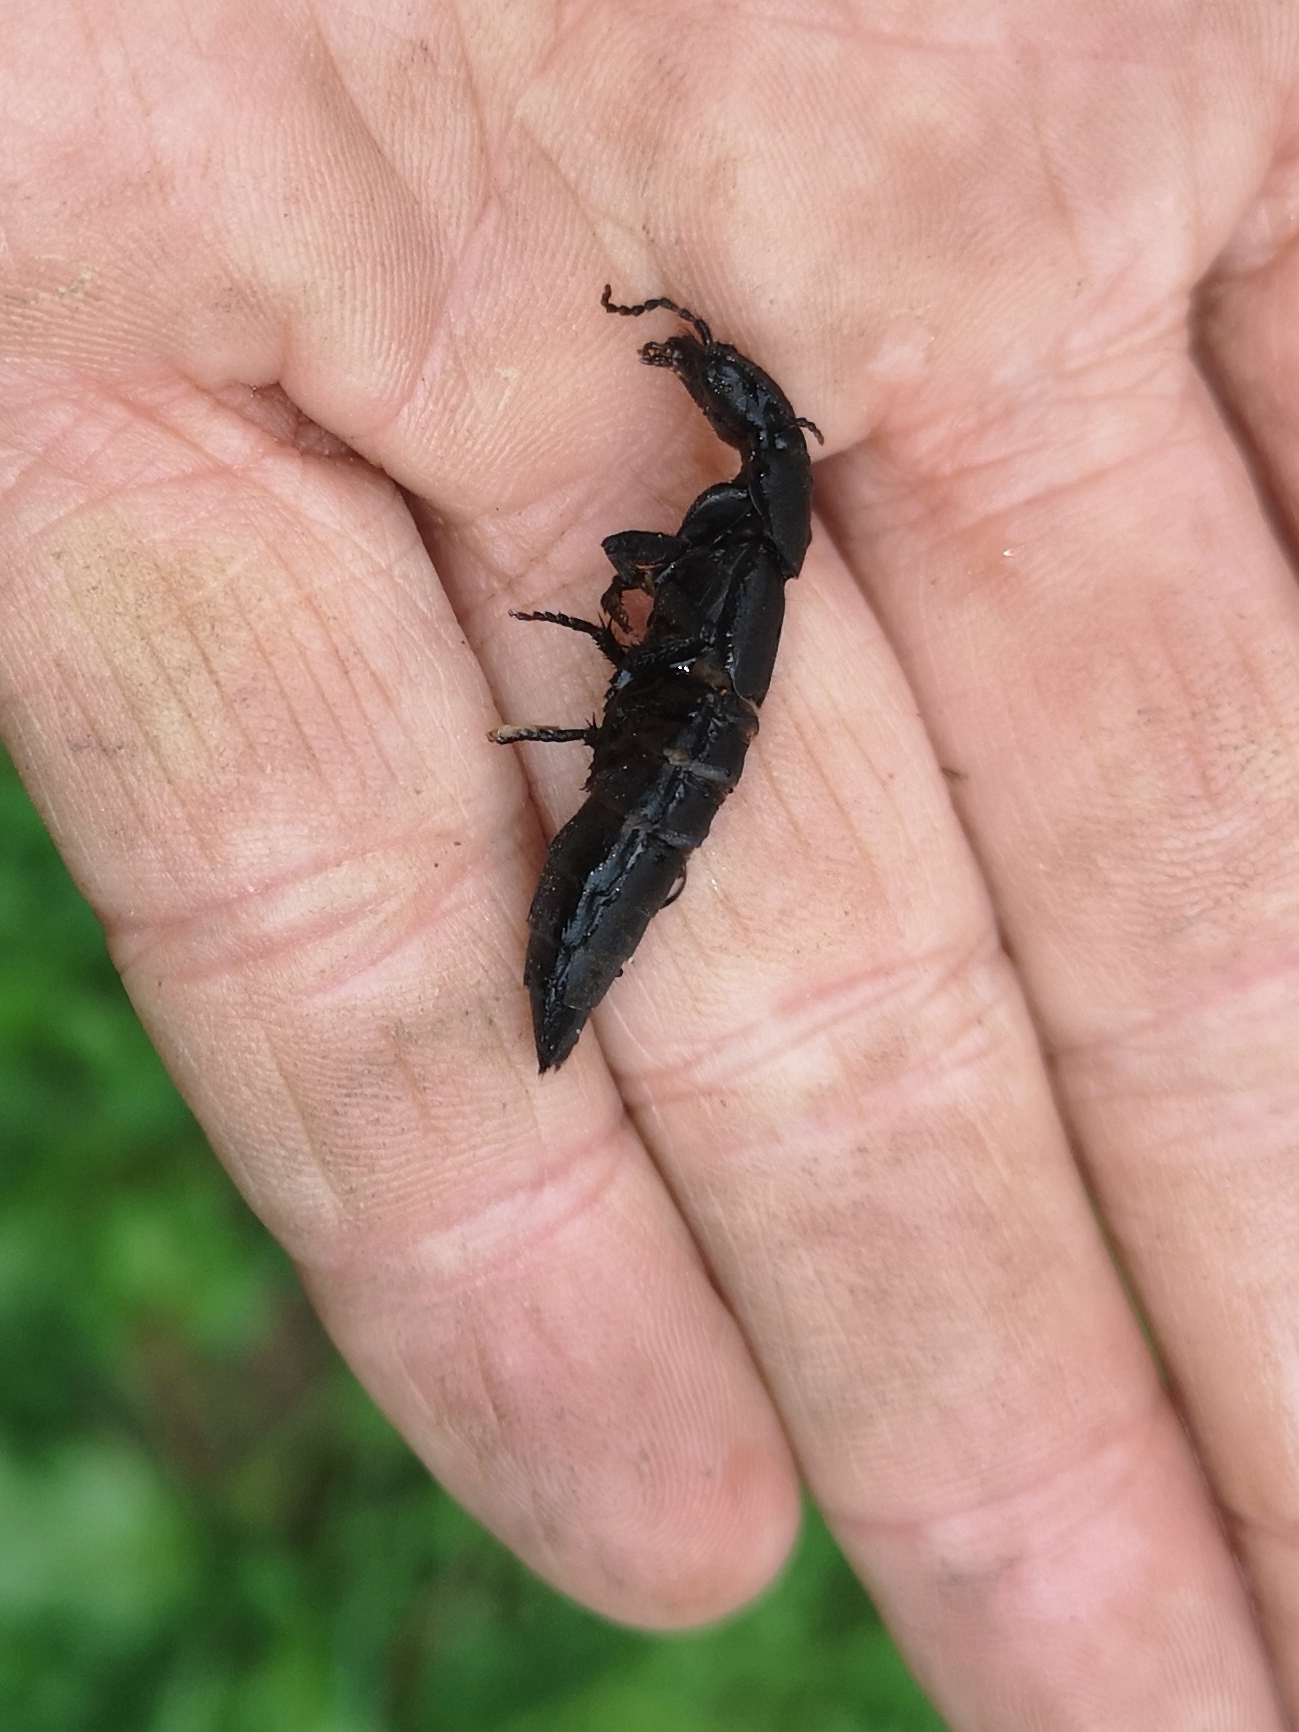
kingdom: Animalia
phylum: Arthropoda
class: Insecta
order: Coleoptera
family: Staphylinidae
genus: Ocypus
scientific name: Ocypus olens
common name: Devil's coach-horse
